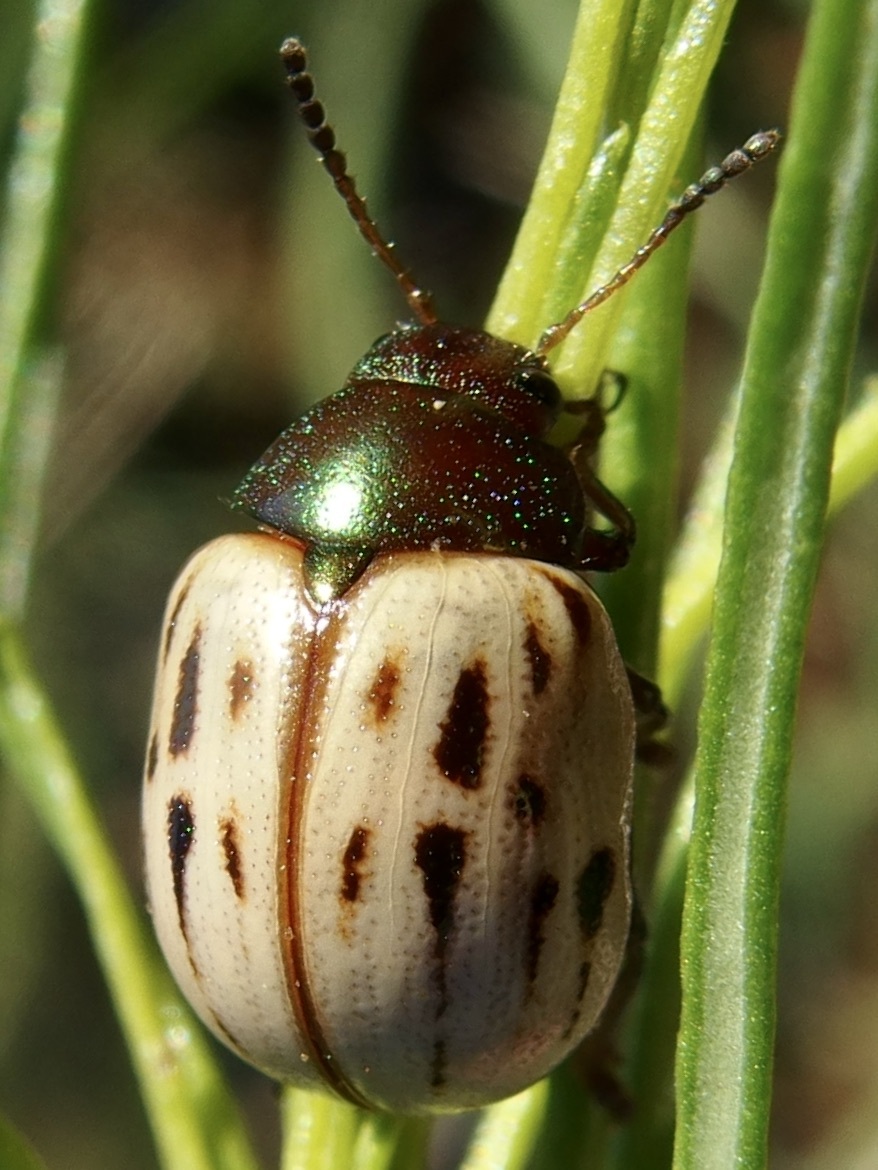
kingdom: Animalia
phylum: Arthropoda
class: Insecta
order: Coleoptera
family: Chrysomelidae
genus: Leptinotarsa
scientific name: Leptinotarsa lineolata
